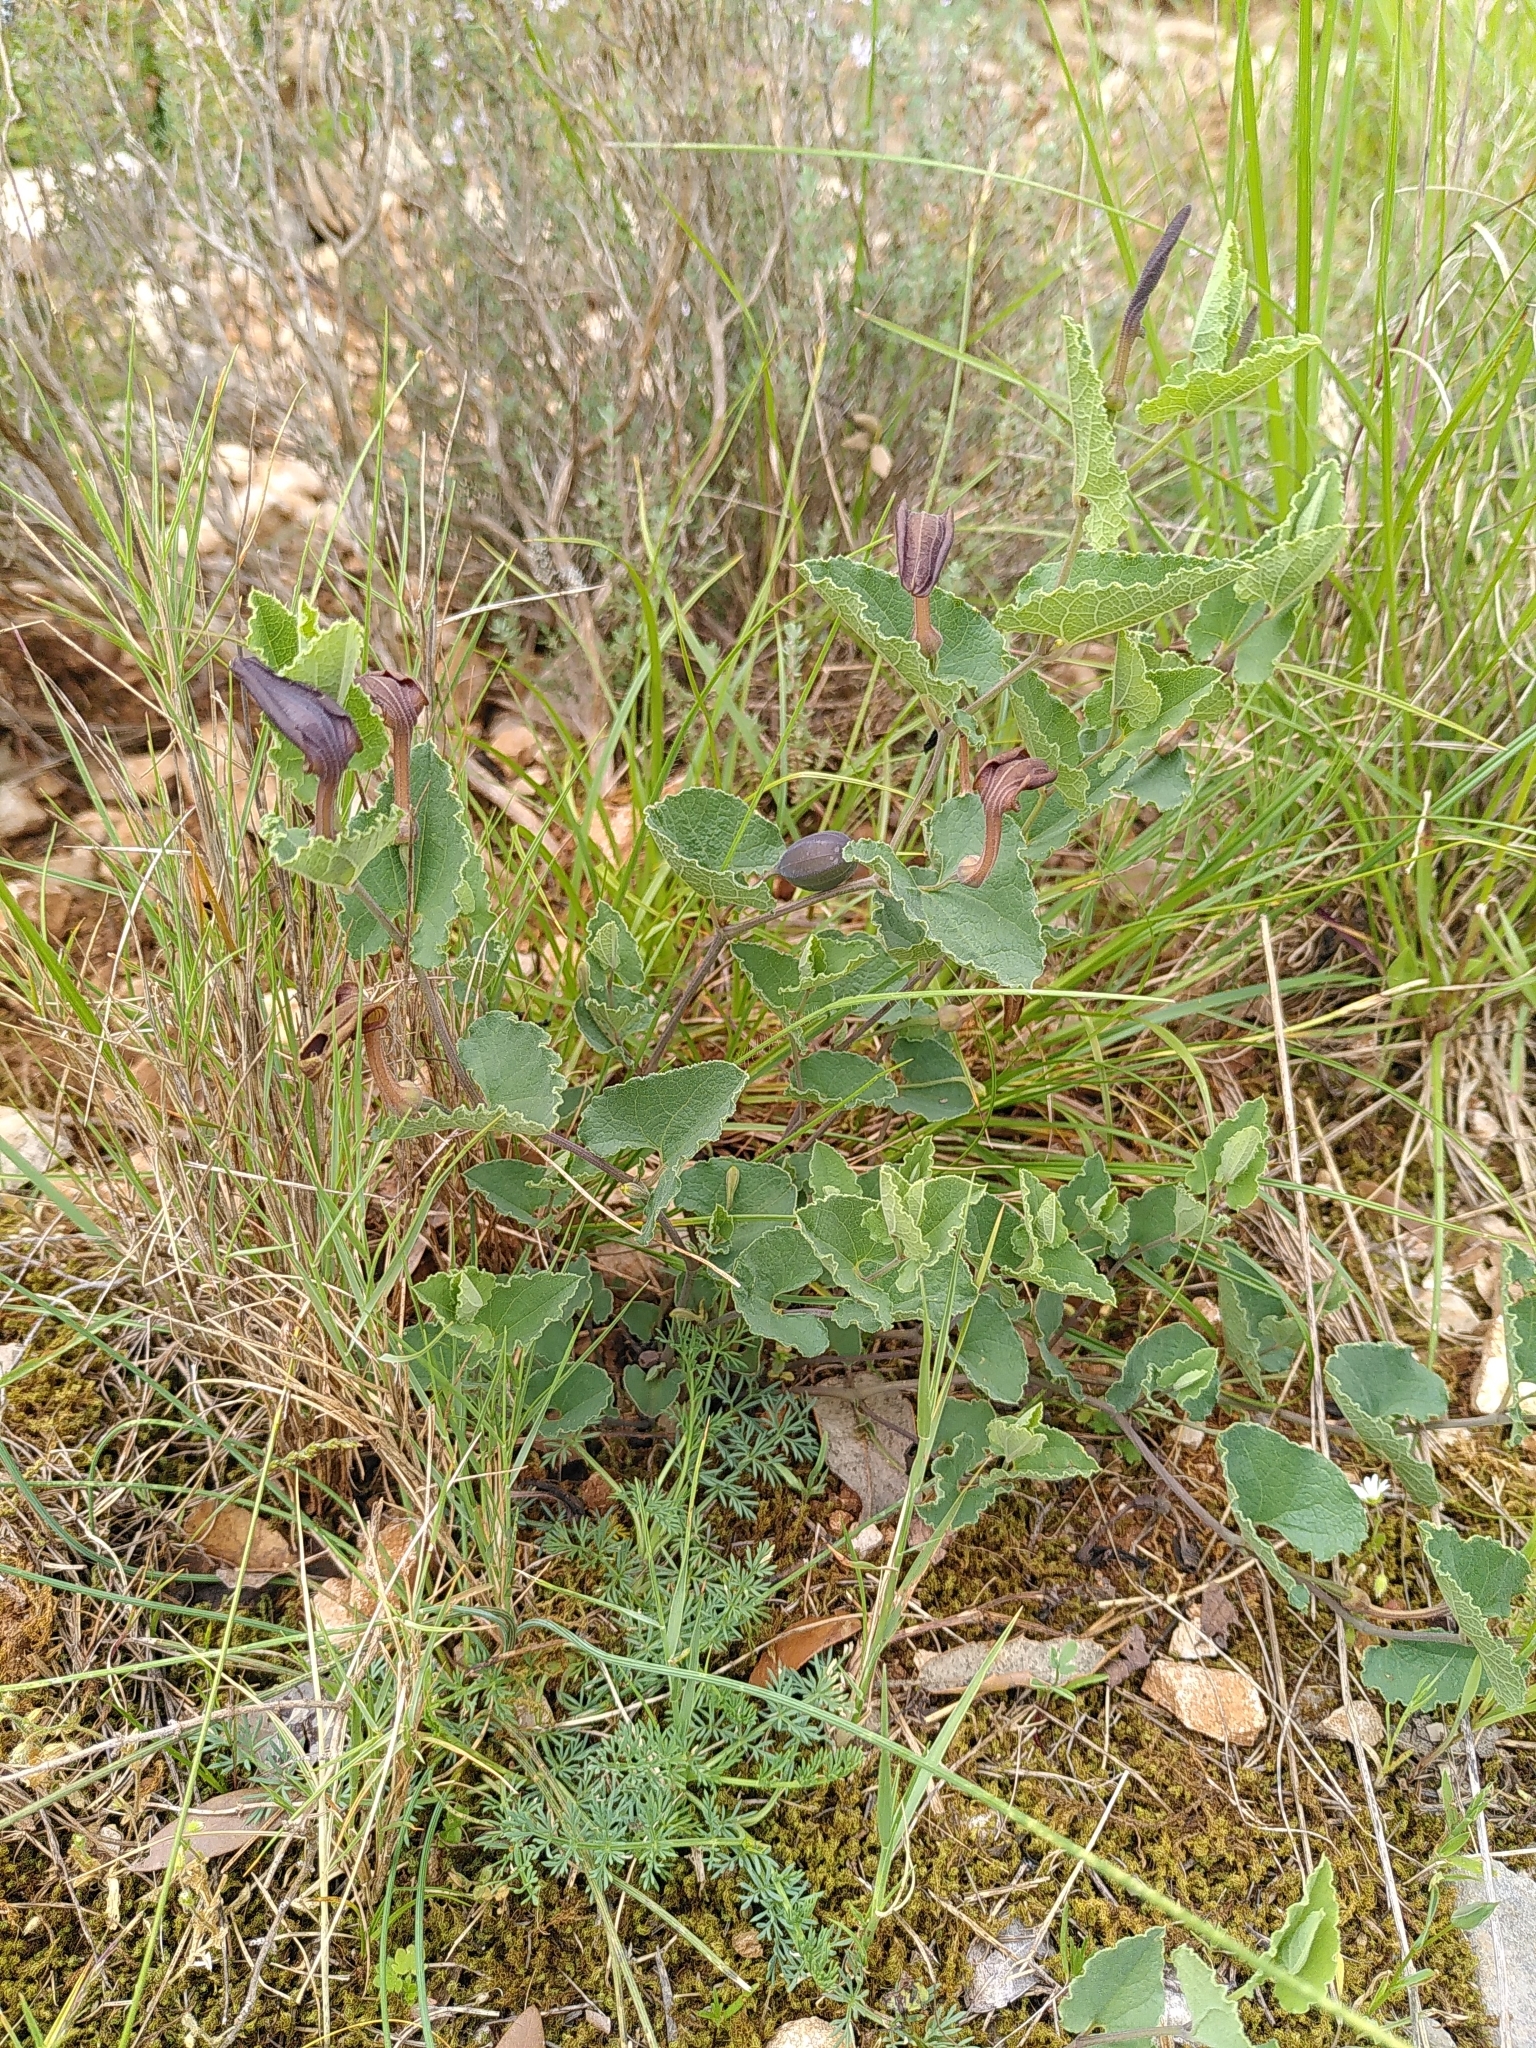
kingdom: Plantae
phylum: Tracheophyta
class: Magnoliopsida
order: Piperales
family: Aristolochiaceae
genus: Aristolochia
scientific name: Aristolochia pistolochia
